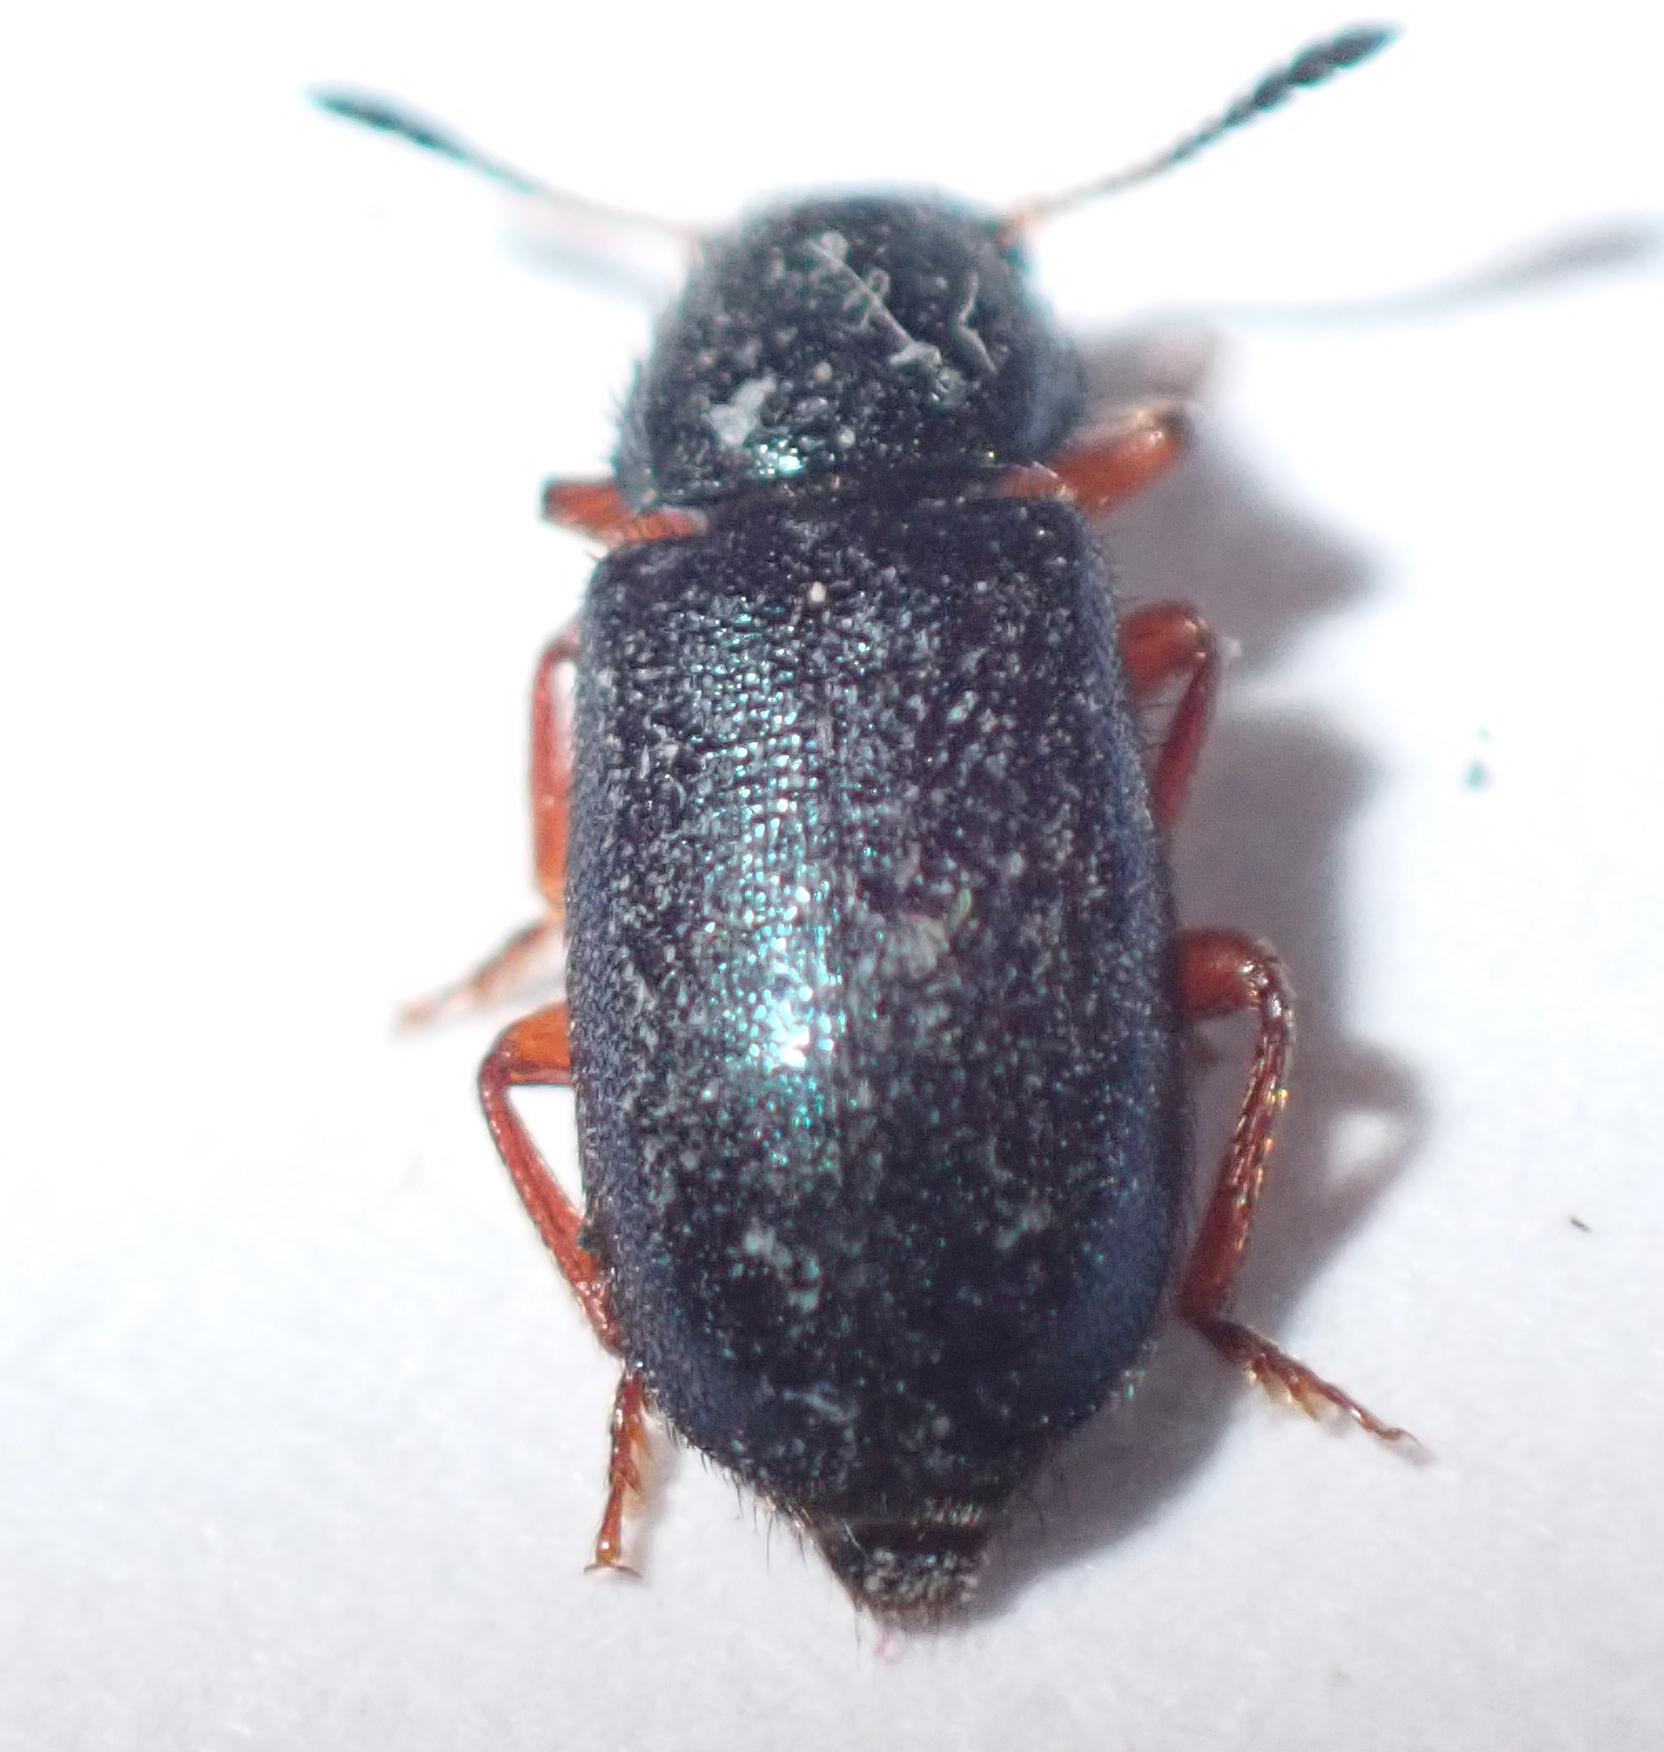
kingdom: Animalia
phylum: Arthropoda
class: Insecta
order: Coleoptera
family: Cleridae
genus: Necrobia
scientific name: Necrobia rufipes
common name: Red-legged ham beetle
